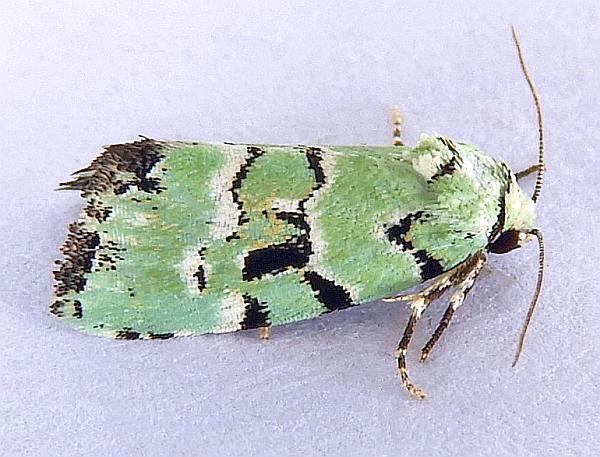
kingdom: Animalia
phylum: Arthropoda
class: Insecta
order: Lepidoptera
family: Noctuidae
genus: Elaphria
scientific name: Elaphria cyanympha
